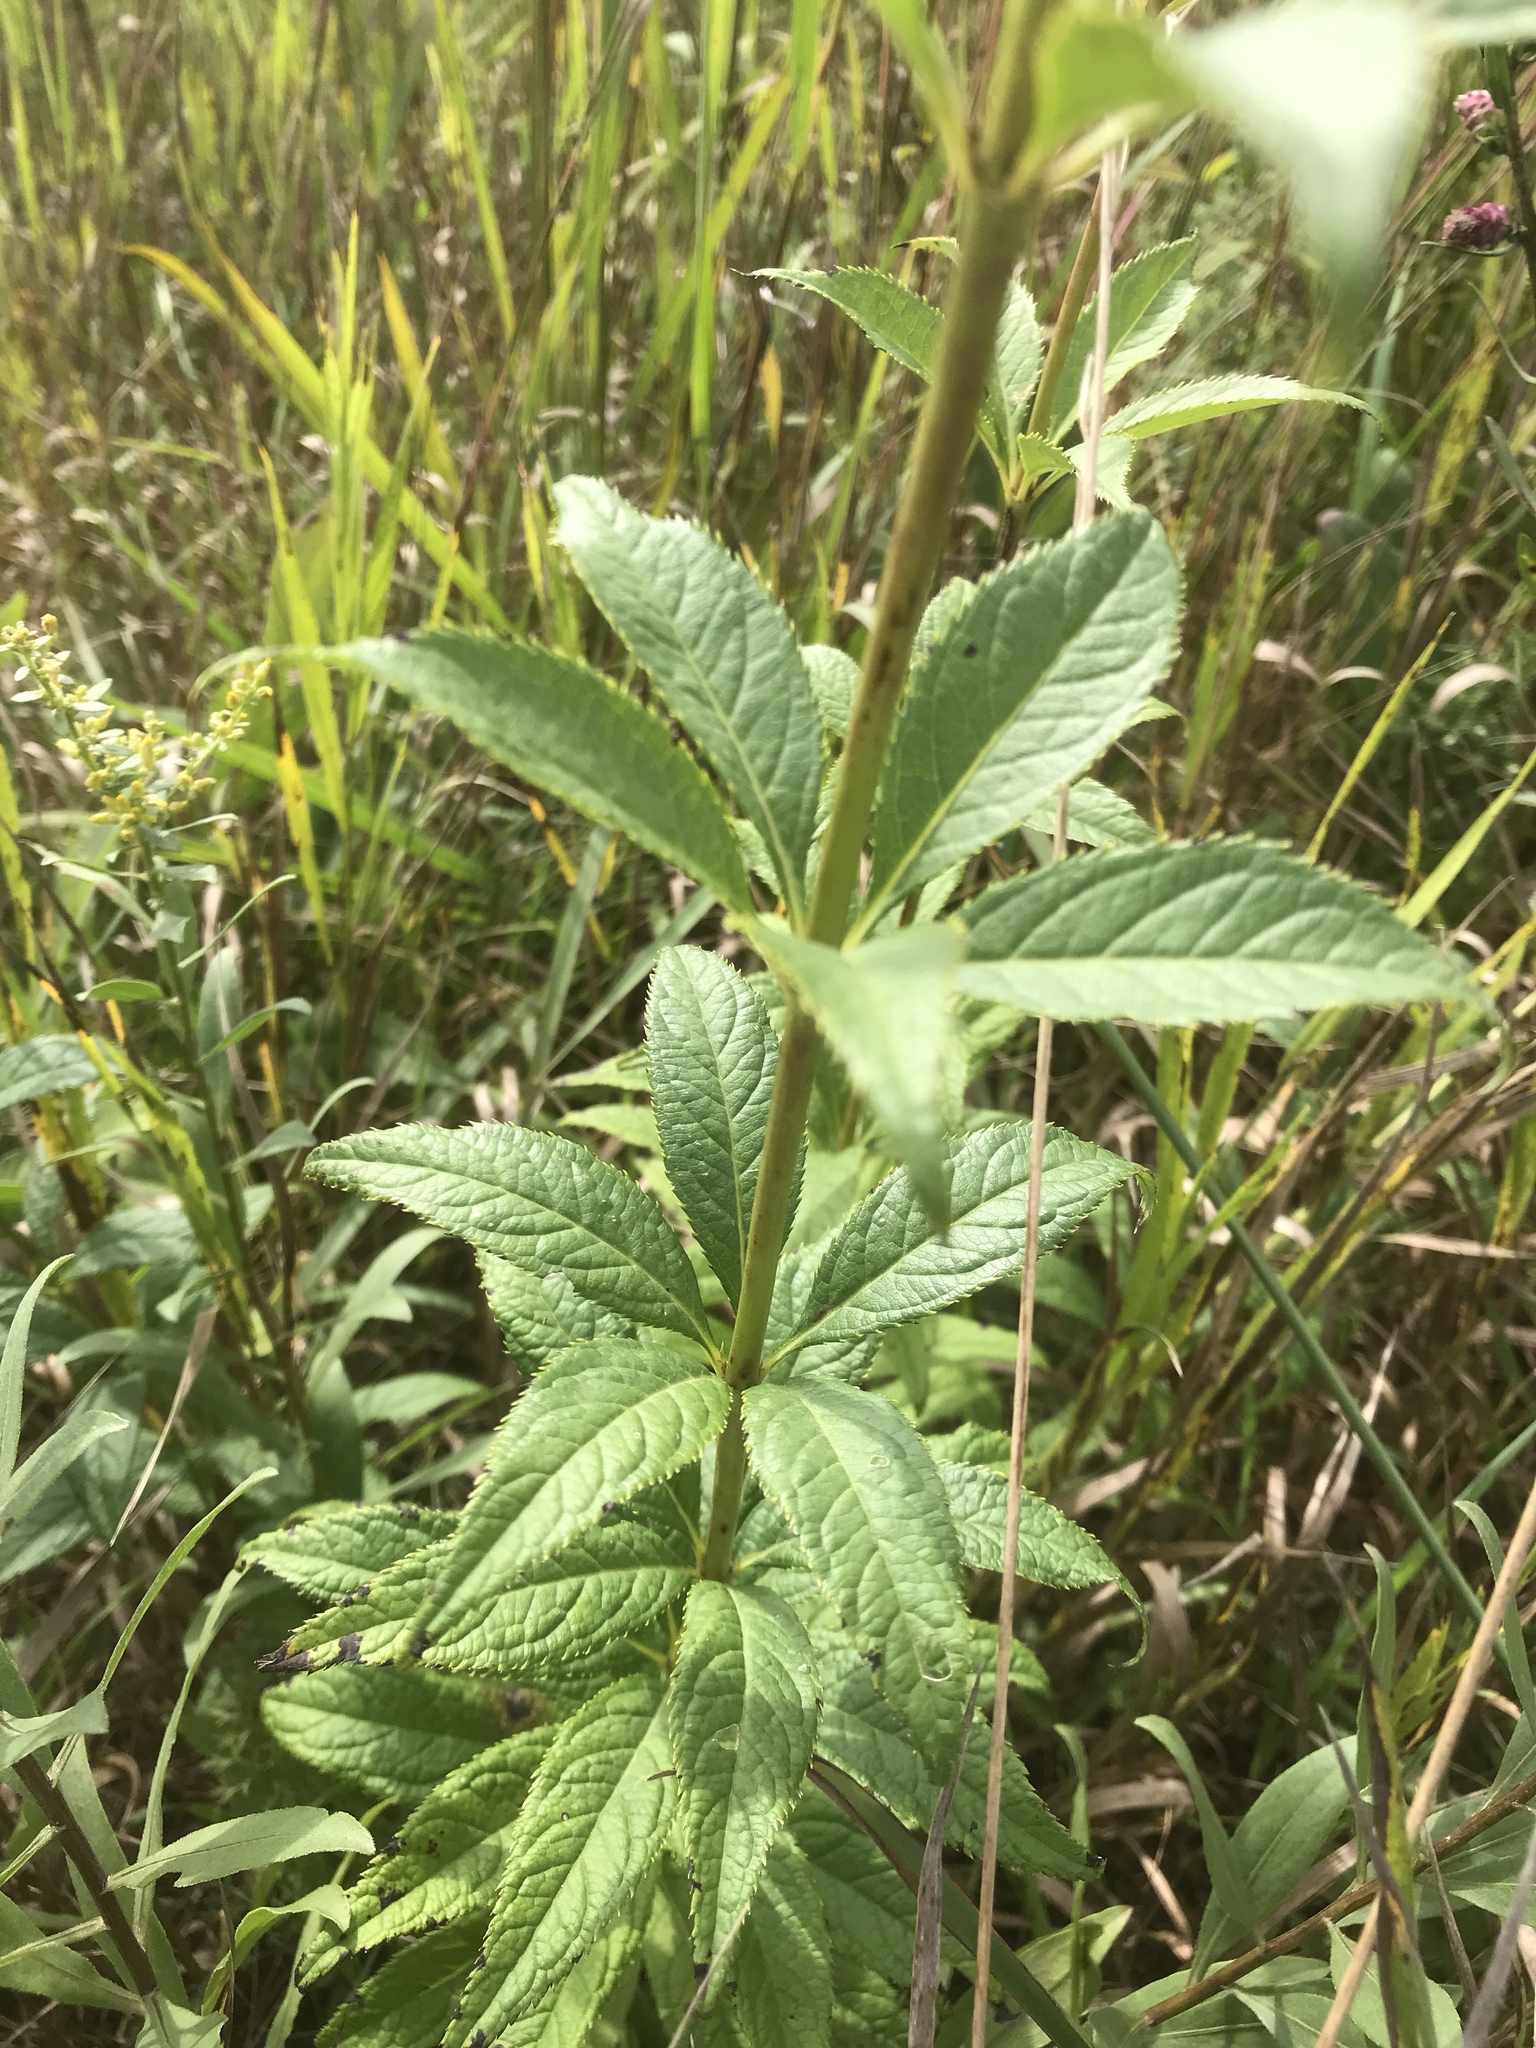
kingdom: Plantae
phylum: Tracheophyta
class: Magnoliopsida
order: Lamiales
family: Plantaginaceae
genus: Veronicastrum
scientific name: Veronicastrum virginicum
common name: Blackroot
